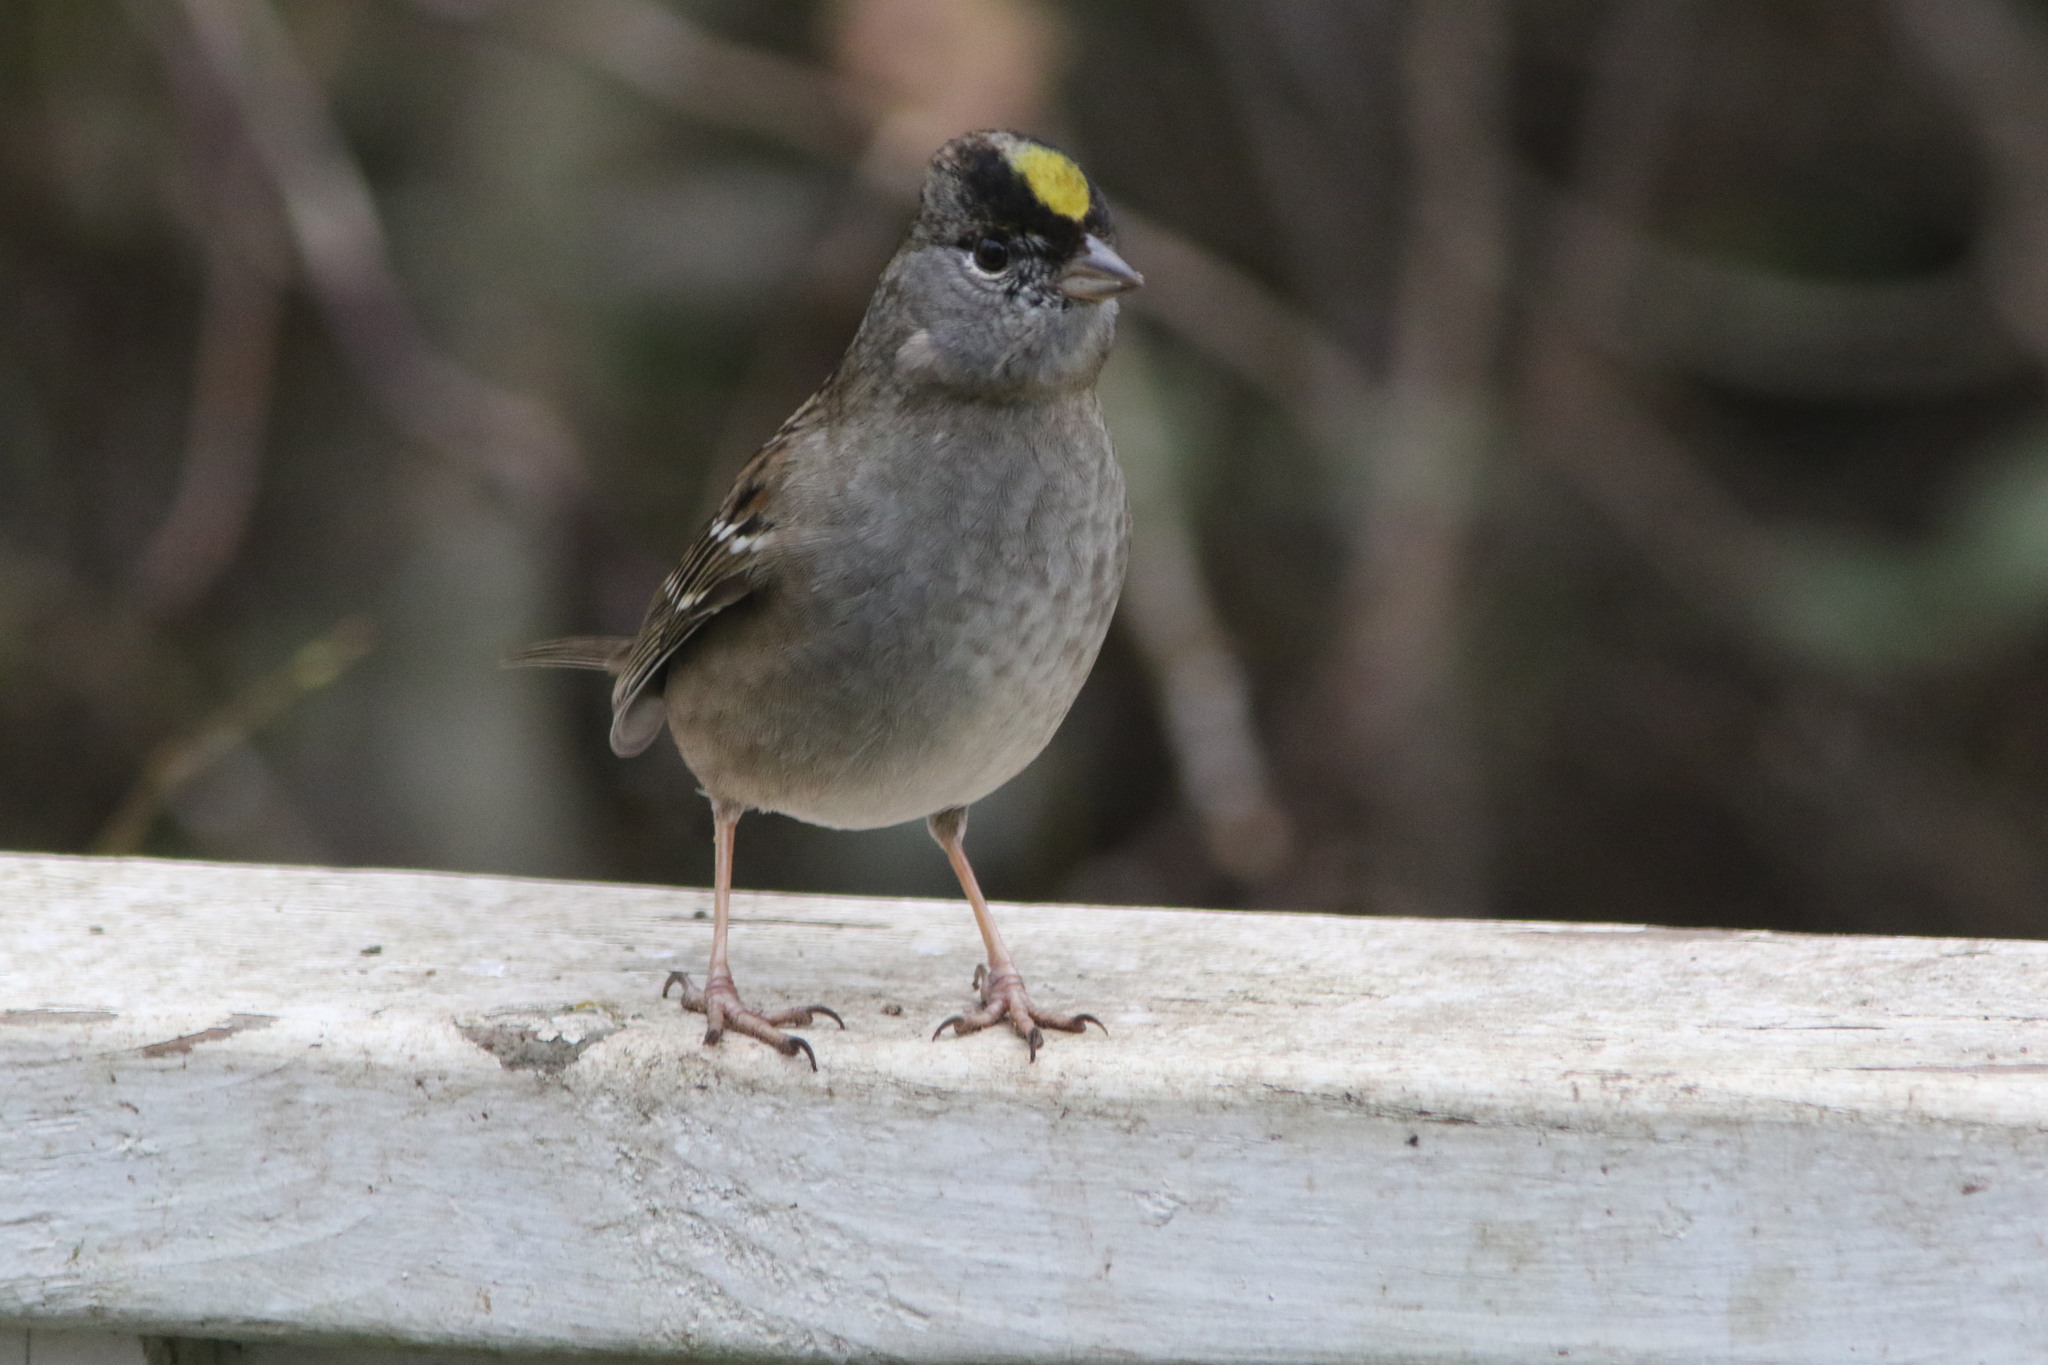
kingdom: Animalia
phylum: Chordata
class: Aves
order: Passeriformes
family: Passerellidae
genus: Zonotrichia
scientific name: Zonotrichia atricapilla
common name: Golden-crowned sparrow
